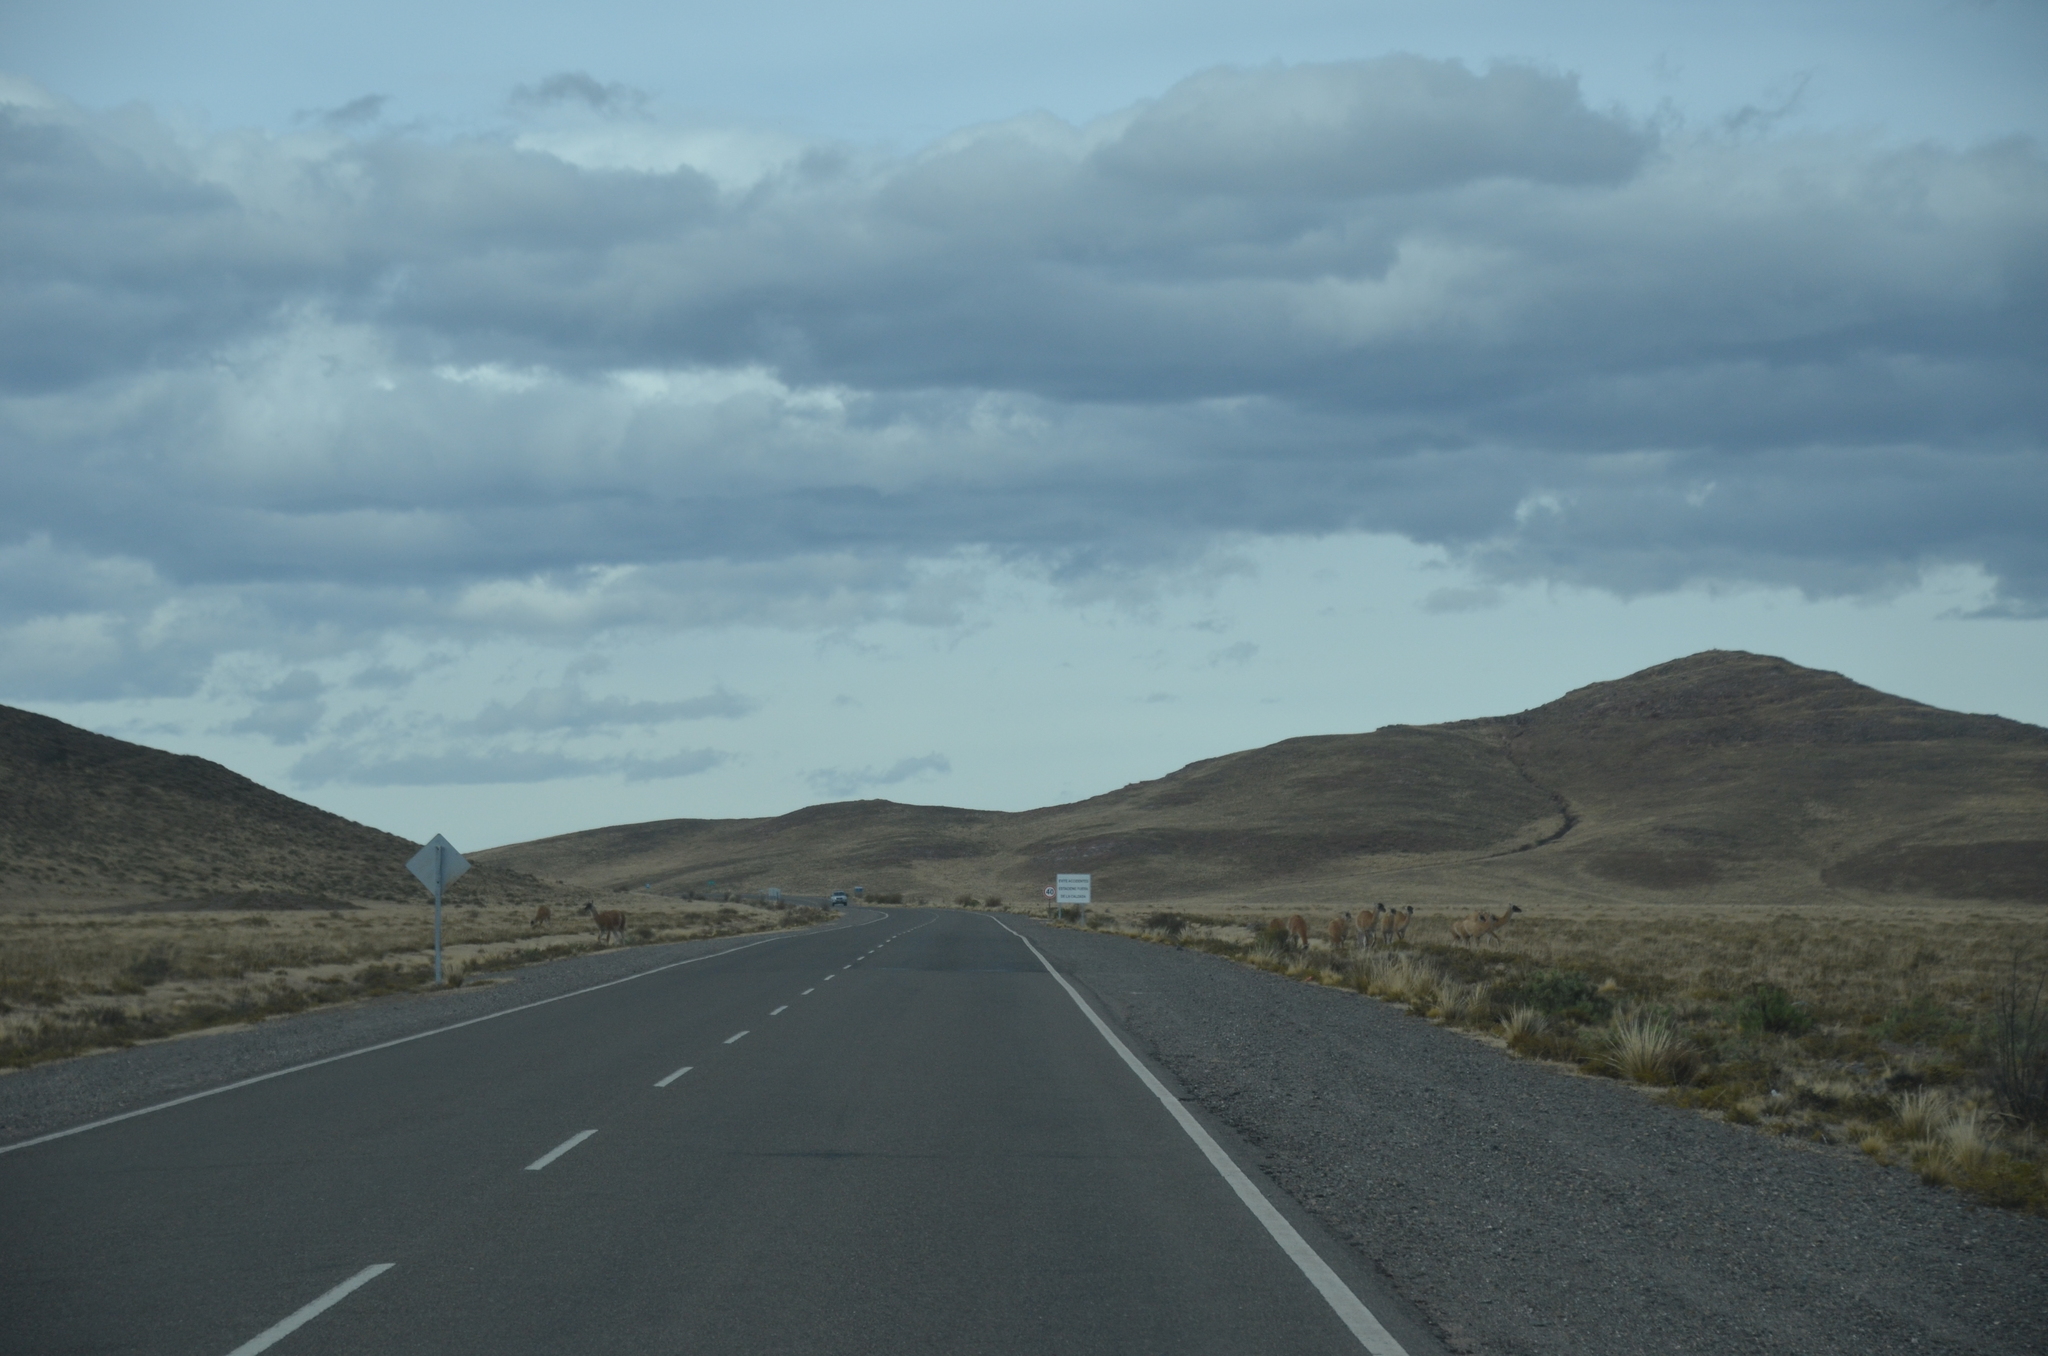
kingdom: Animalia
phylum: Chordata
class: Mammalia
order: Artiodactyla
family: Camelidae
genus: Lama
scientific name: Lama glama
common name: Llama
